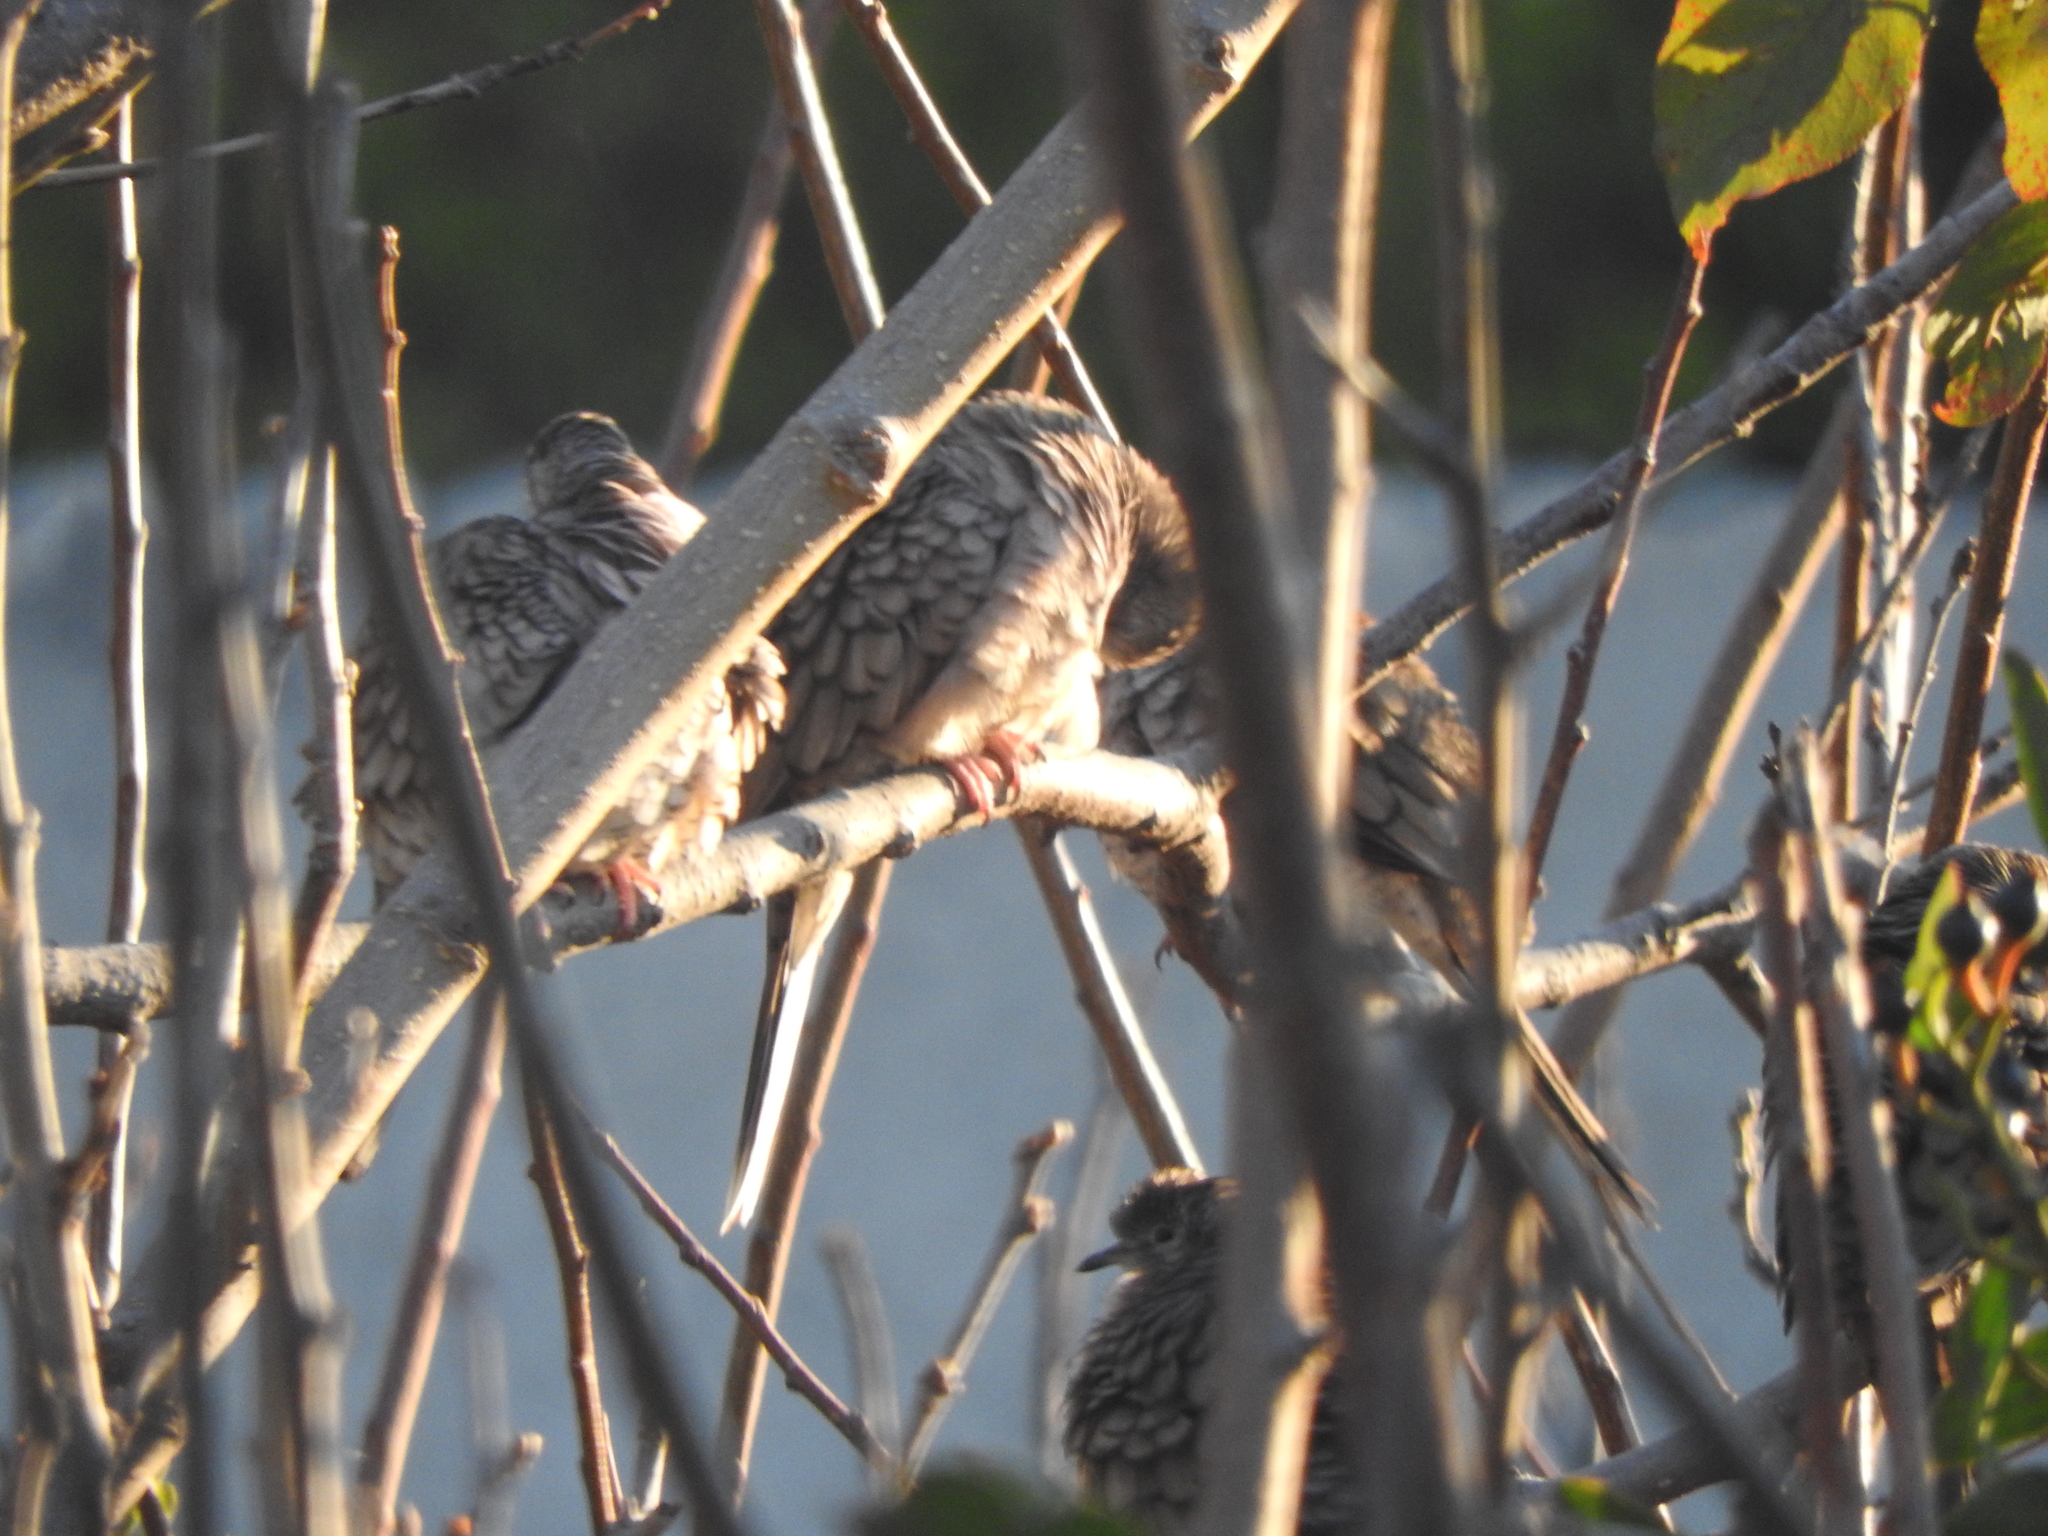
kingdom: Animalia
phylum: Chordata
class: Aves
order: Columbiformes
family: Columbidae
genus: Columbina
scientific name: Columbina inca
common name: Inca dove
